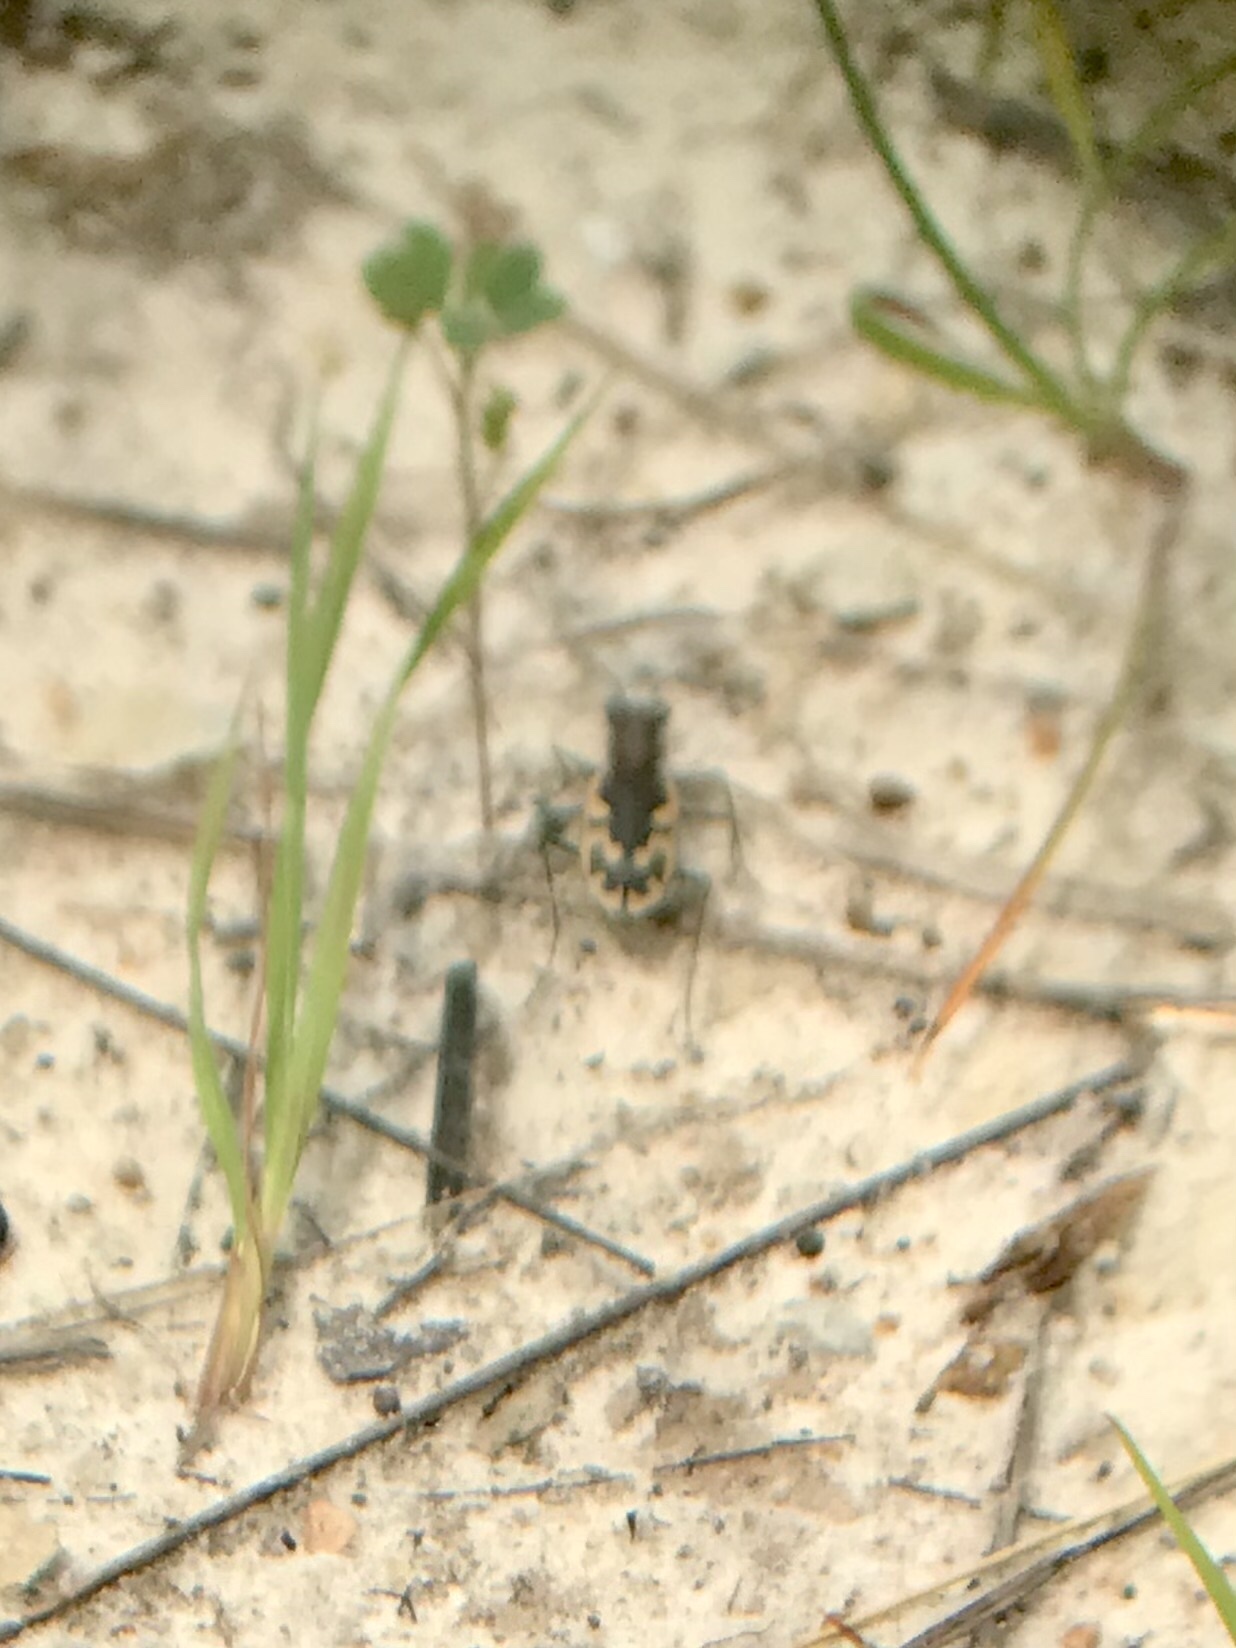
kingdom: Animalia
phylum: Arthropoda
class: Insecta
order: Coleoptera
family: Carabidae
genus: Cicindela
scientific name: Cicindela formosa
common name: Big sand tiger beetle
